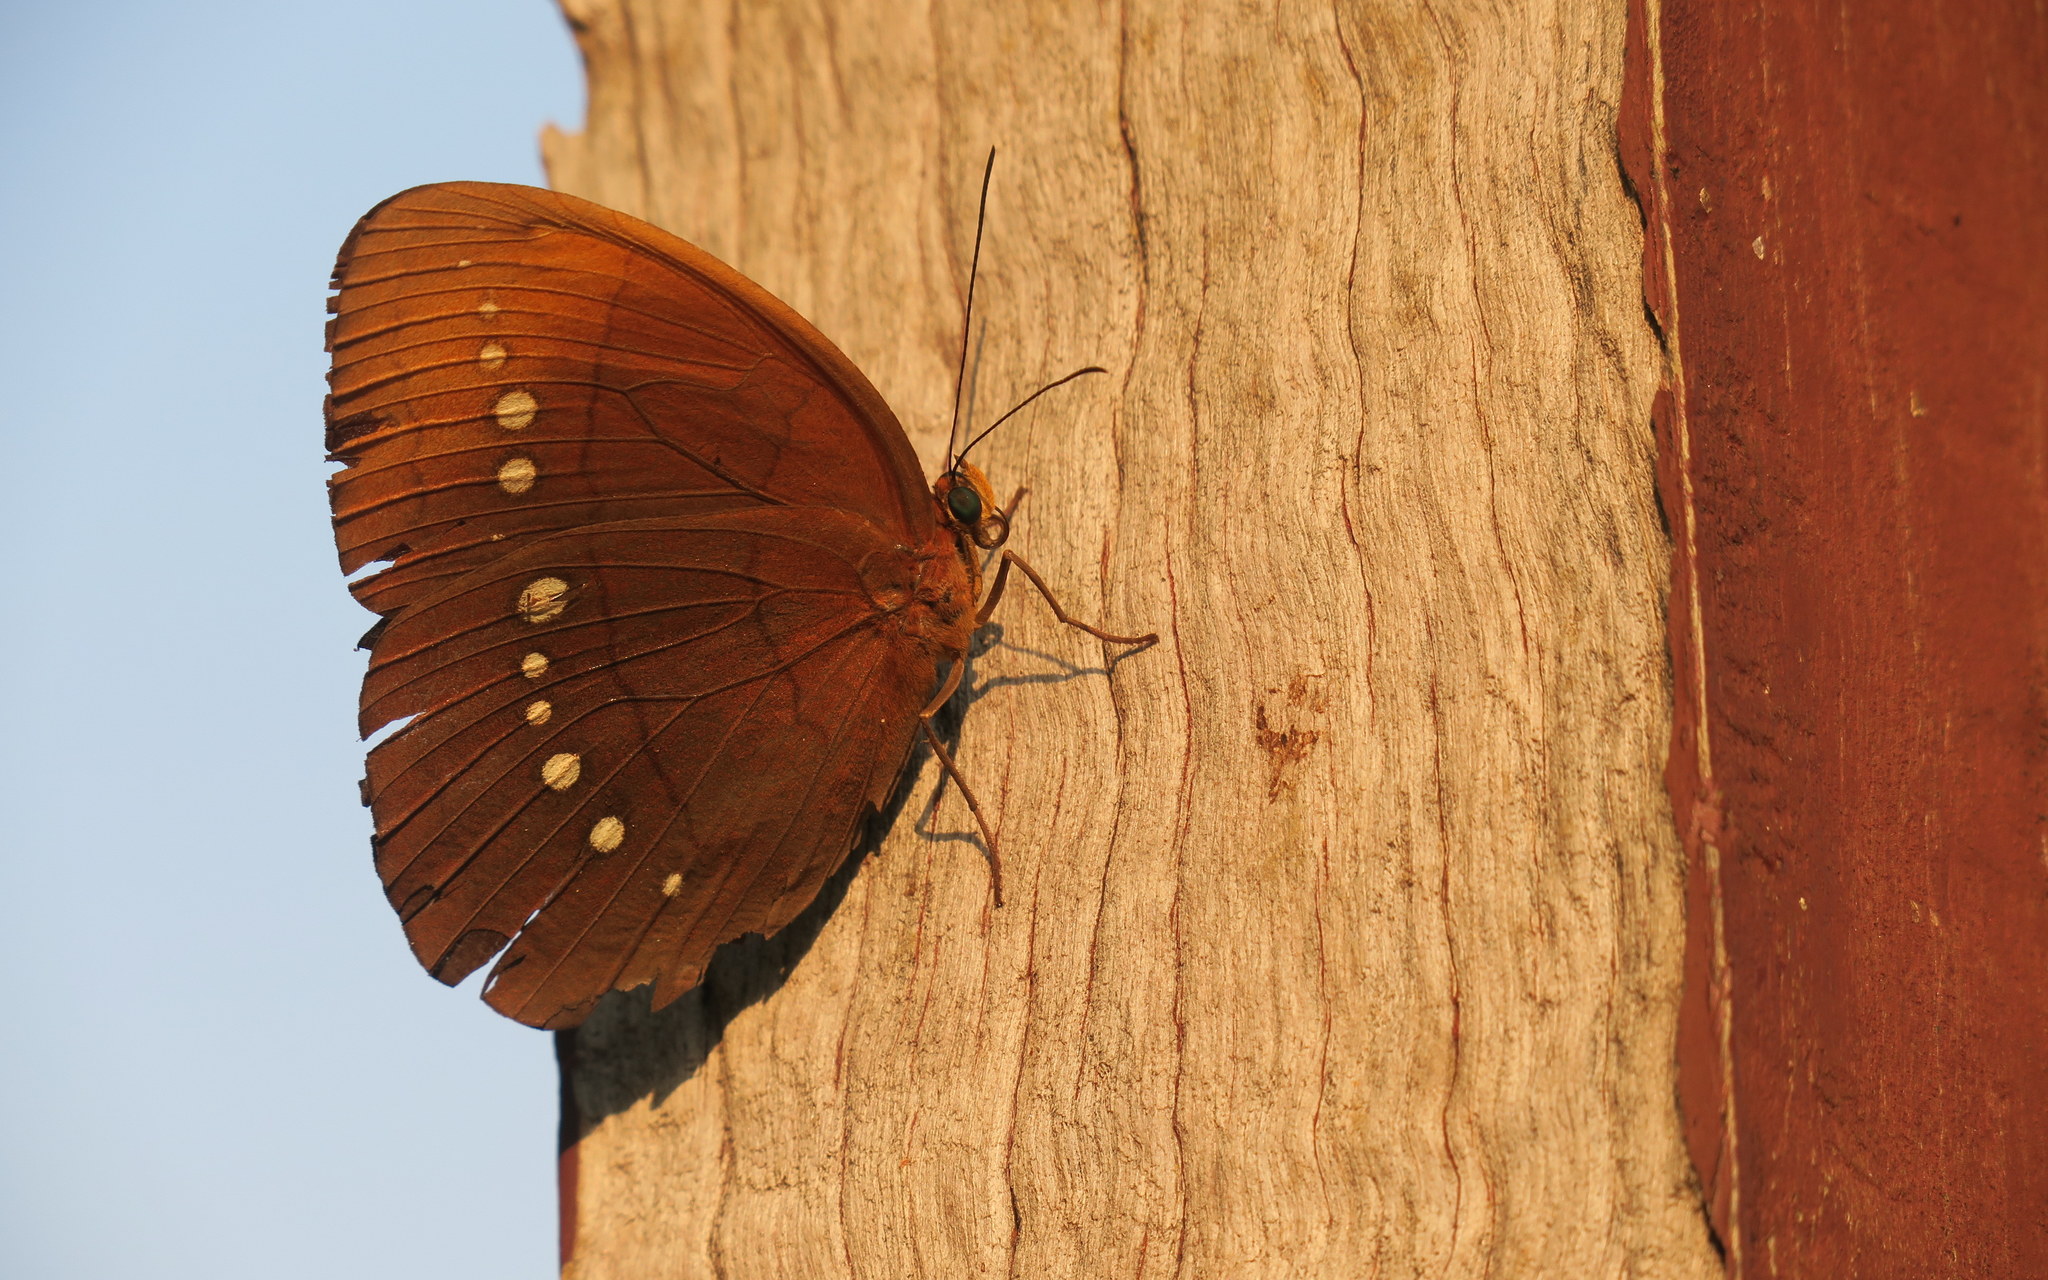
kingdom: Animalia
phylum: Arthropoda
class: Insecta
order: Lepidoptera
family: Nymphalidae
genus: Faunis
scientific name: Faunis eumeus
